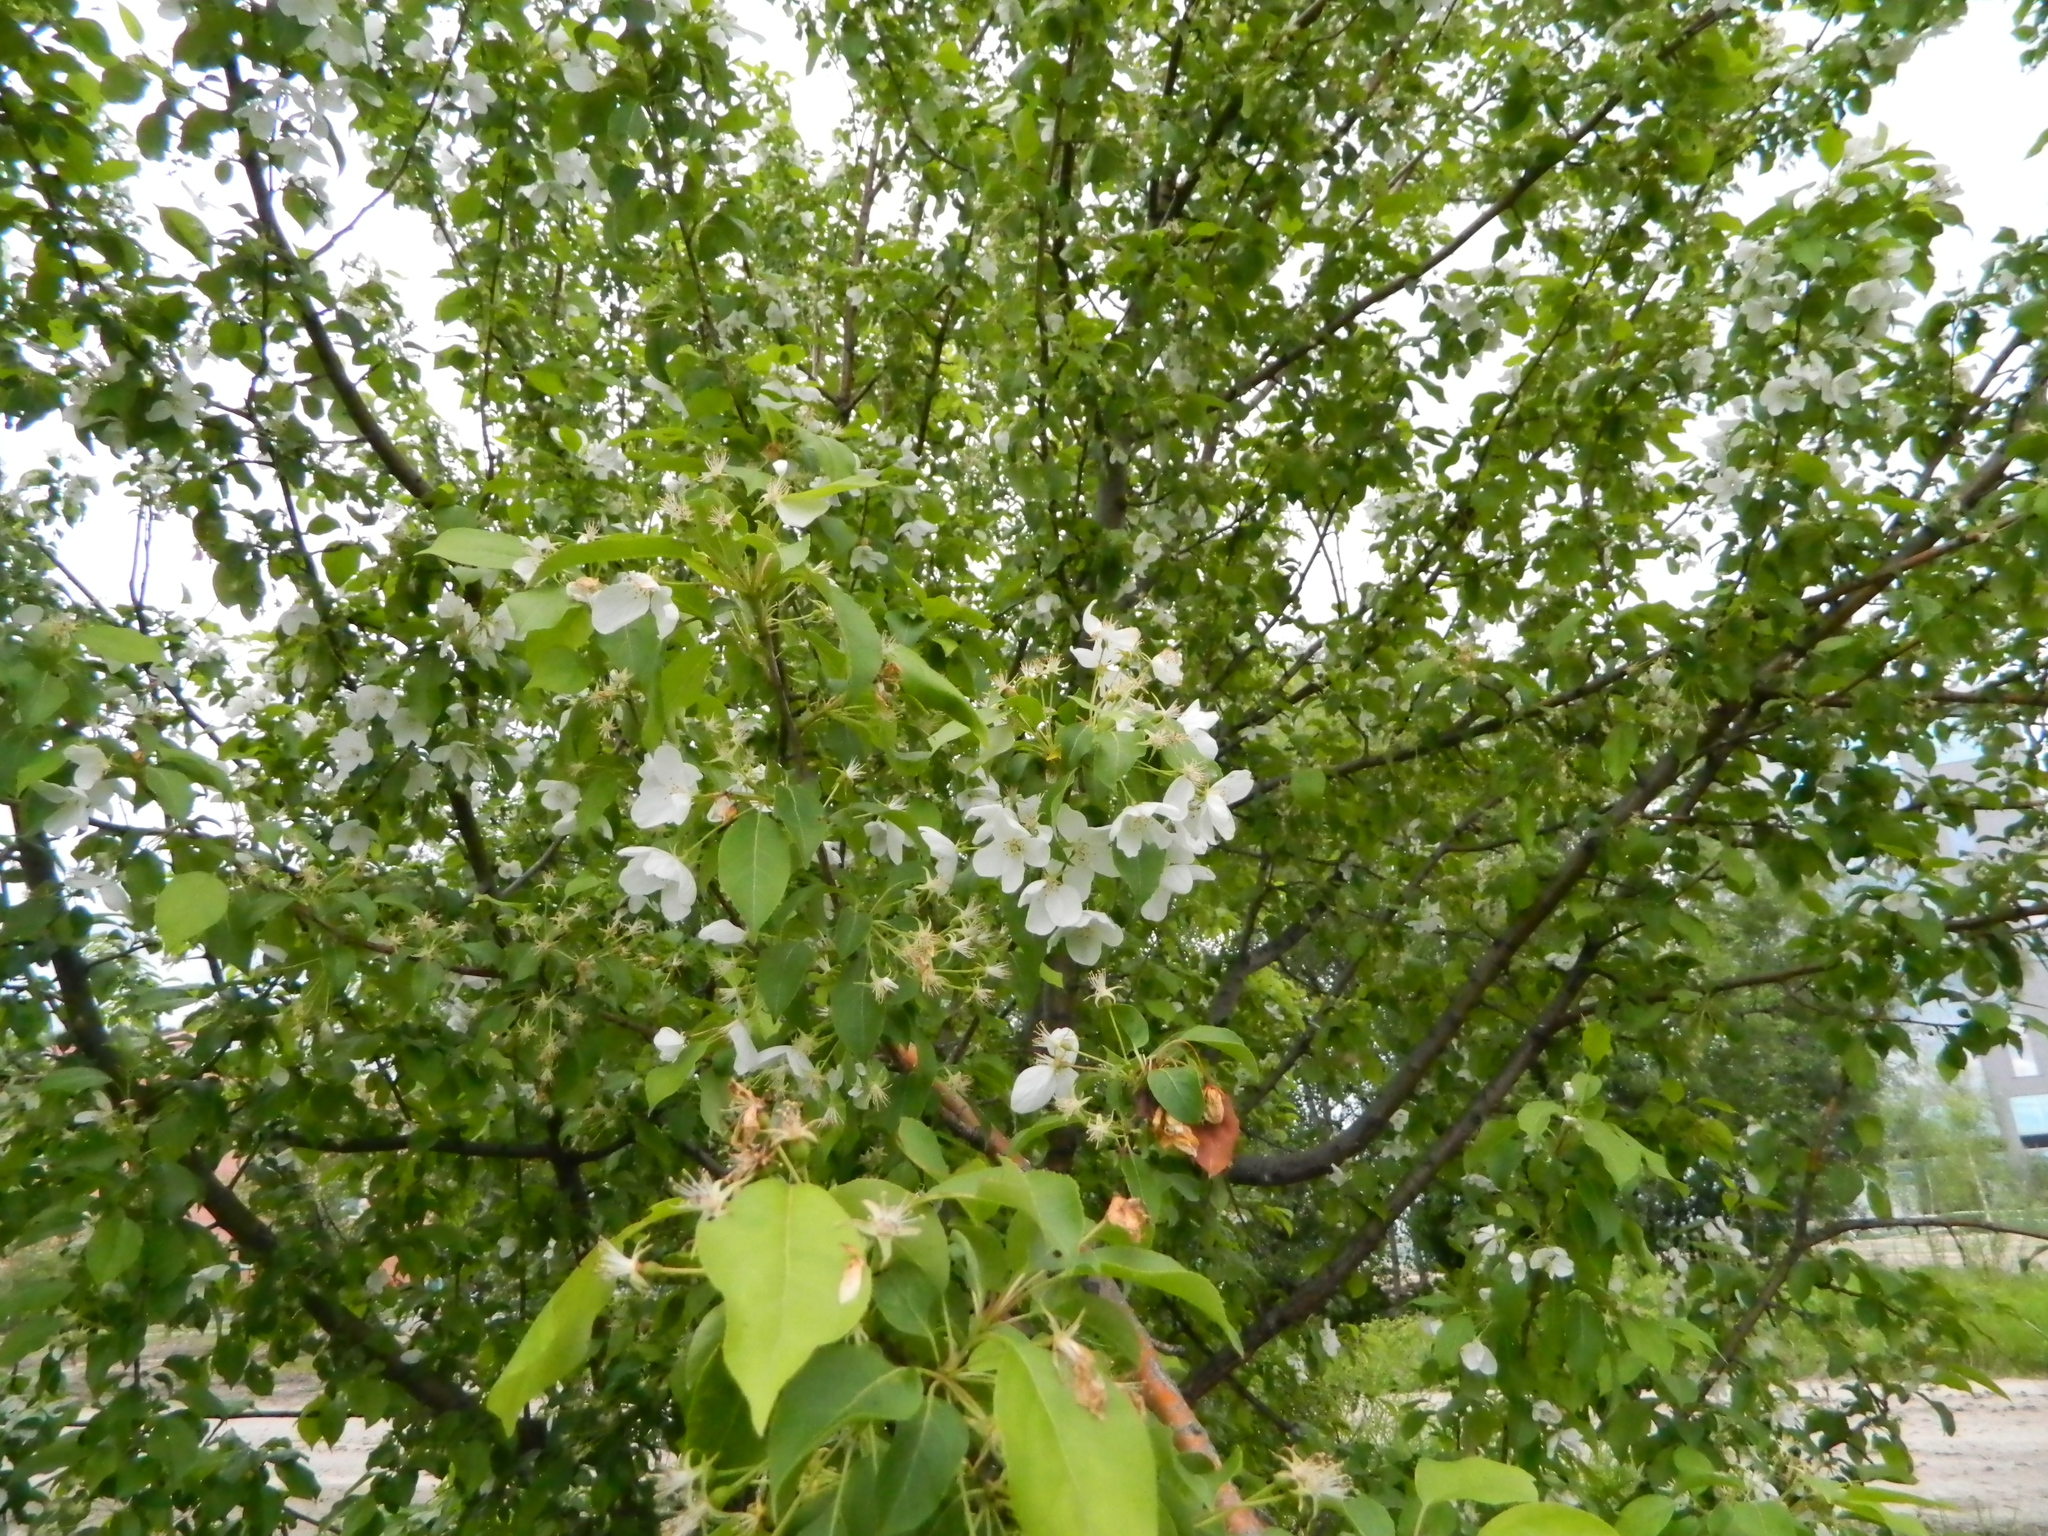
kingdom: Plantae
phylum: Tracheophyta
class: Magnoliopsida
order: Rosales
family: Rosaceae
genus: Malus
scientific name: Malus baccata
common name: Siberian crab
